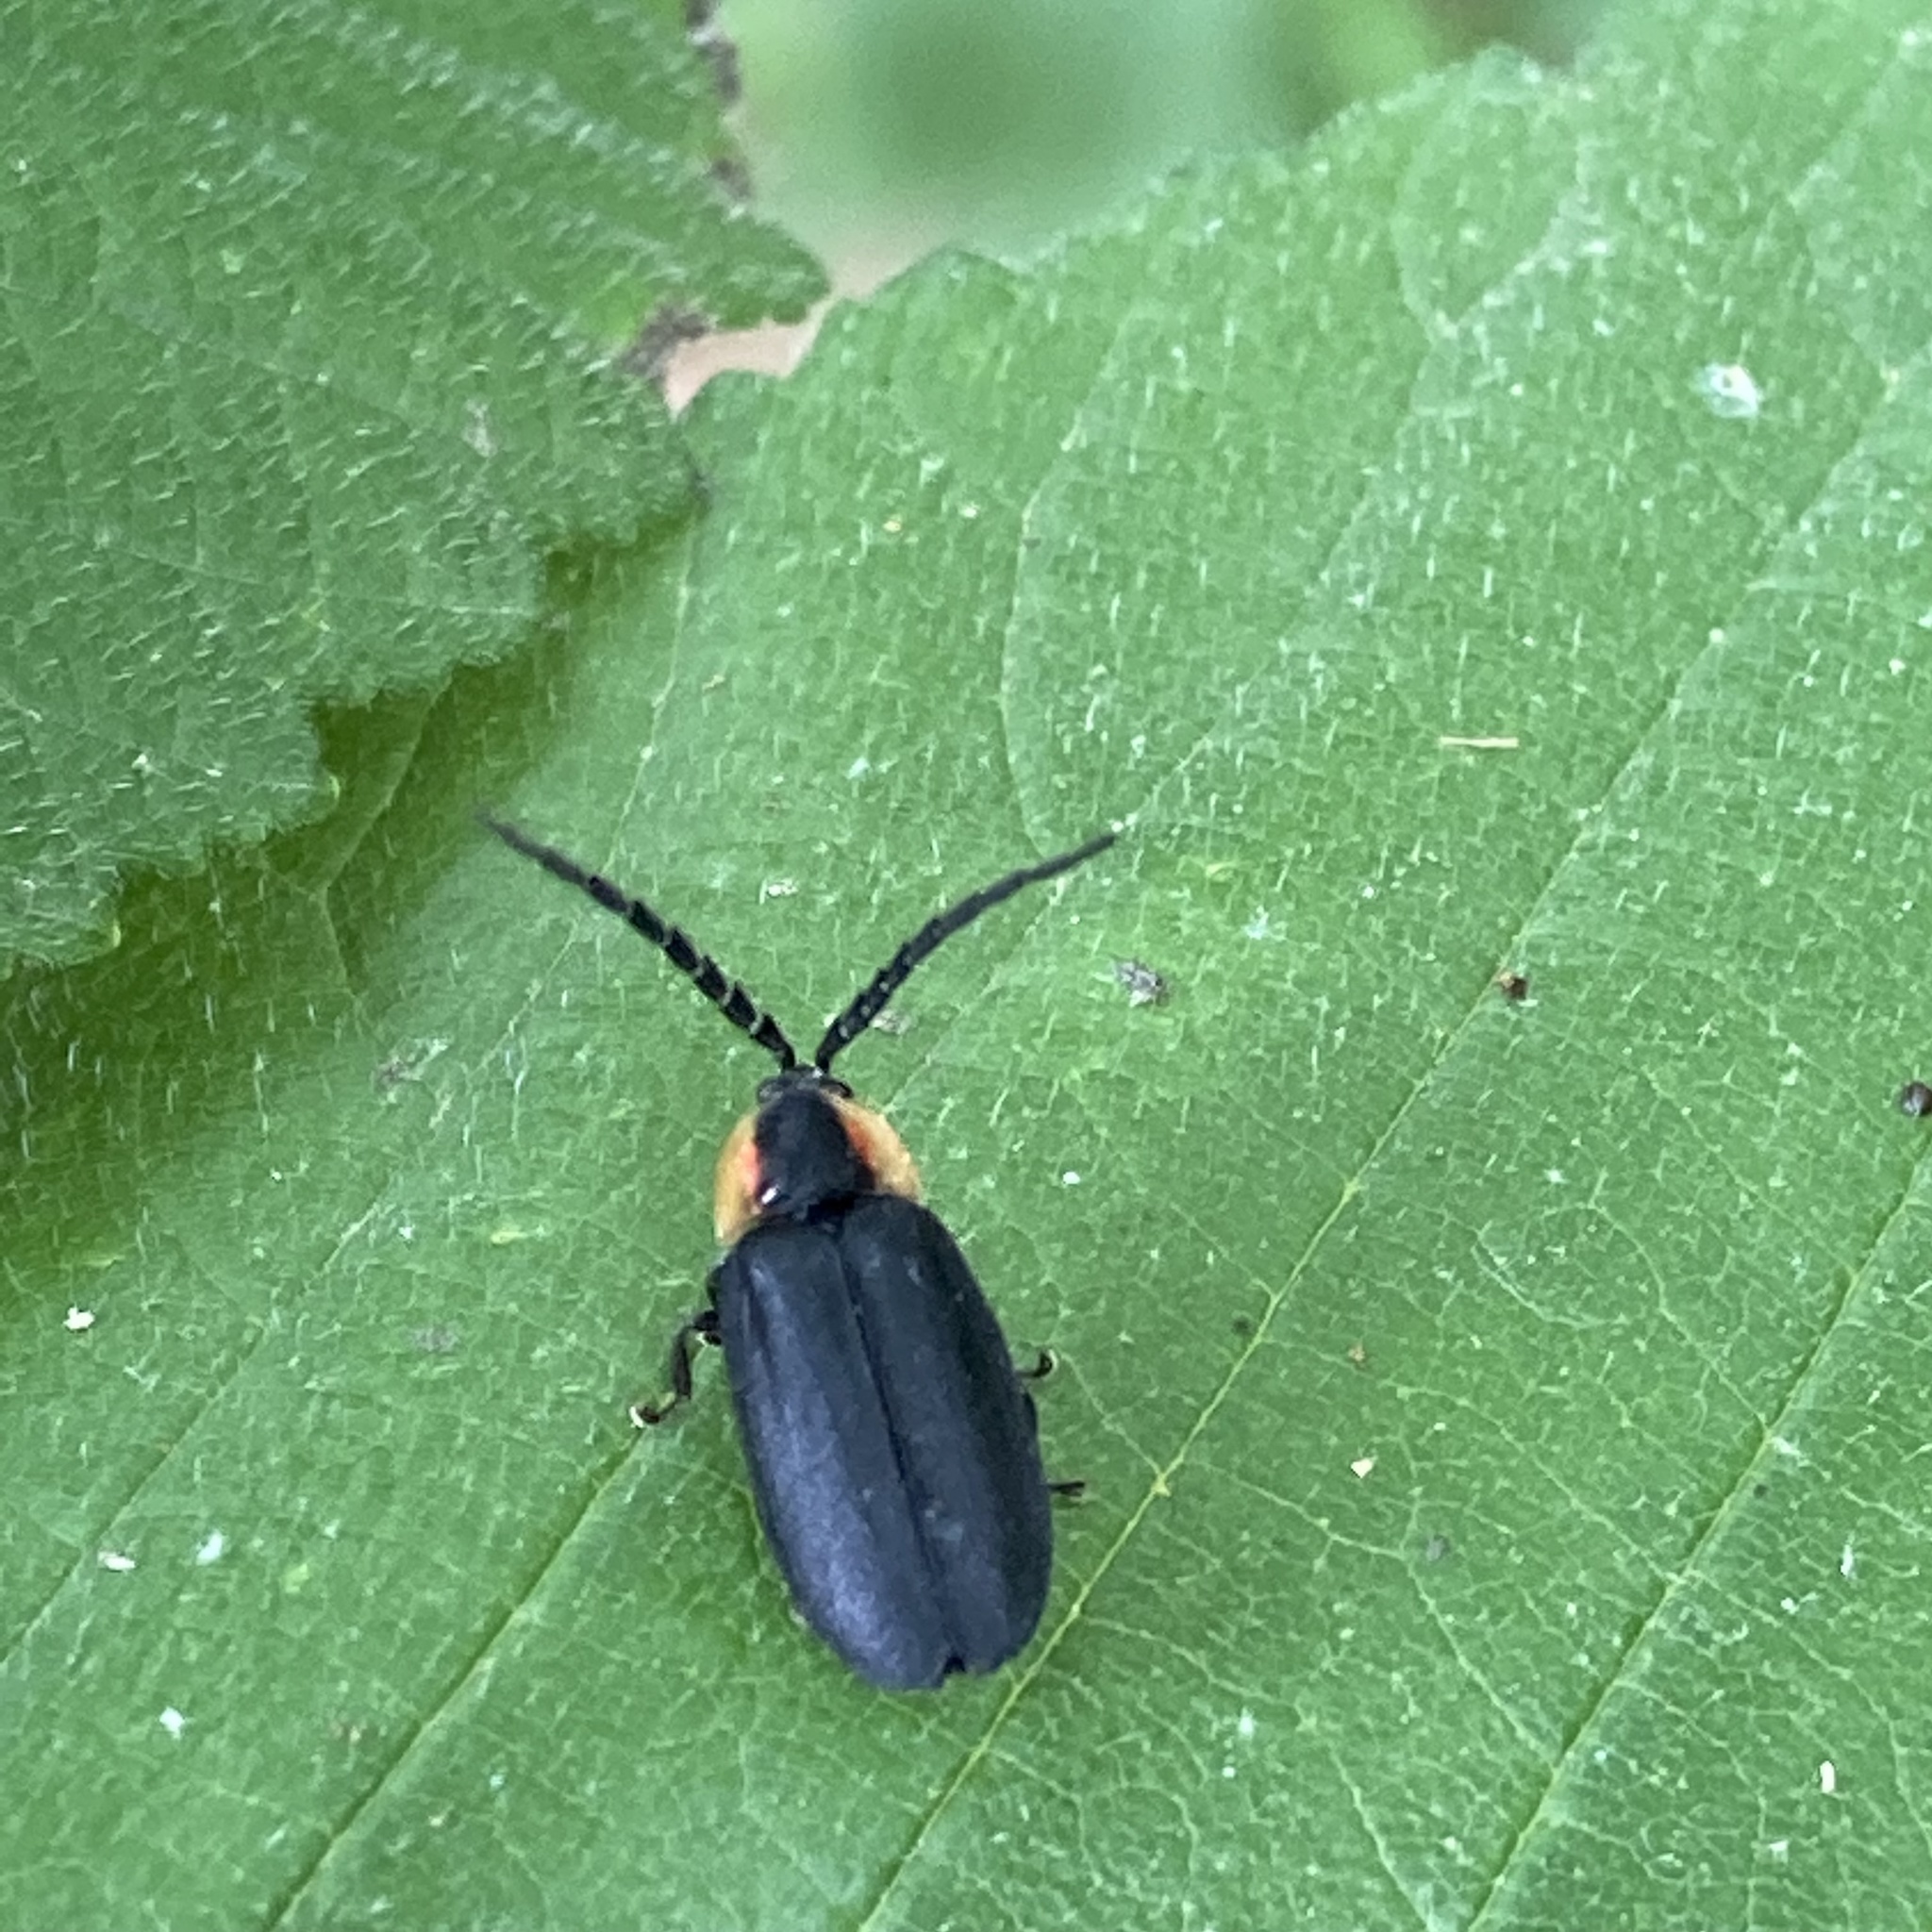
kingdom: Animalia
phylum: Arthropoda
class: Insecta
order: Coleoptera
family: Lampyridae
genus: Lucidota
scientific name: Lucidota atra
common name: Black firefly
